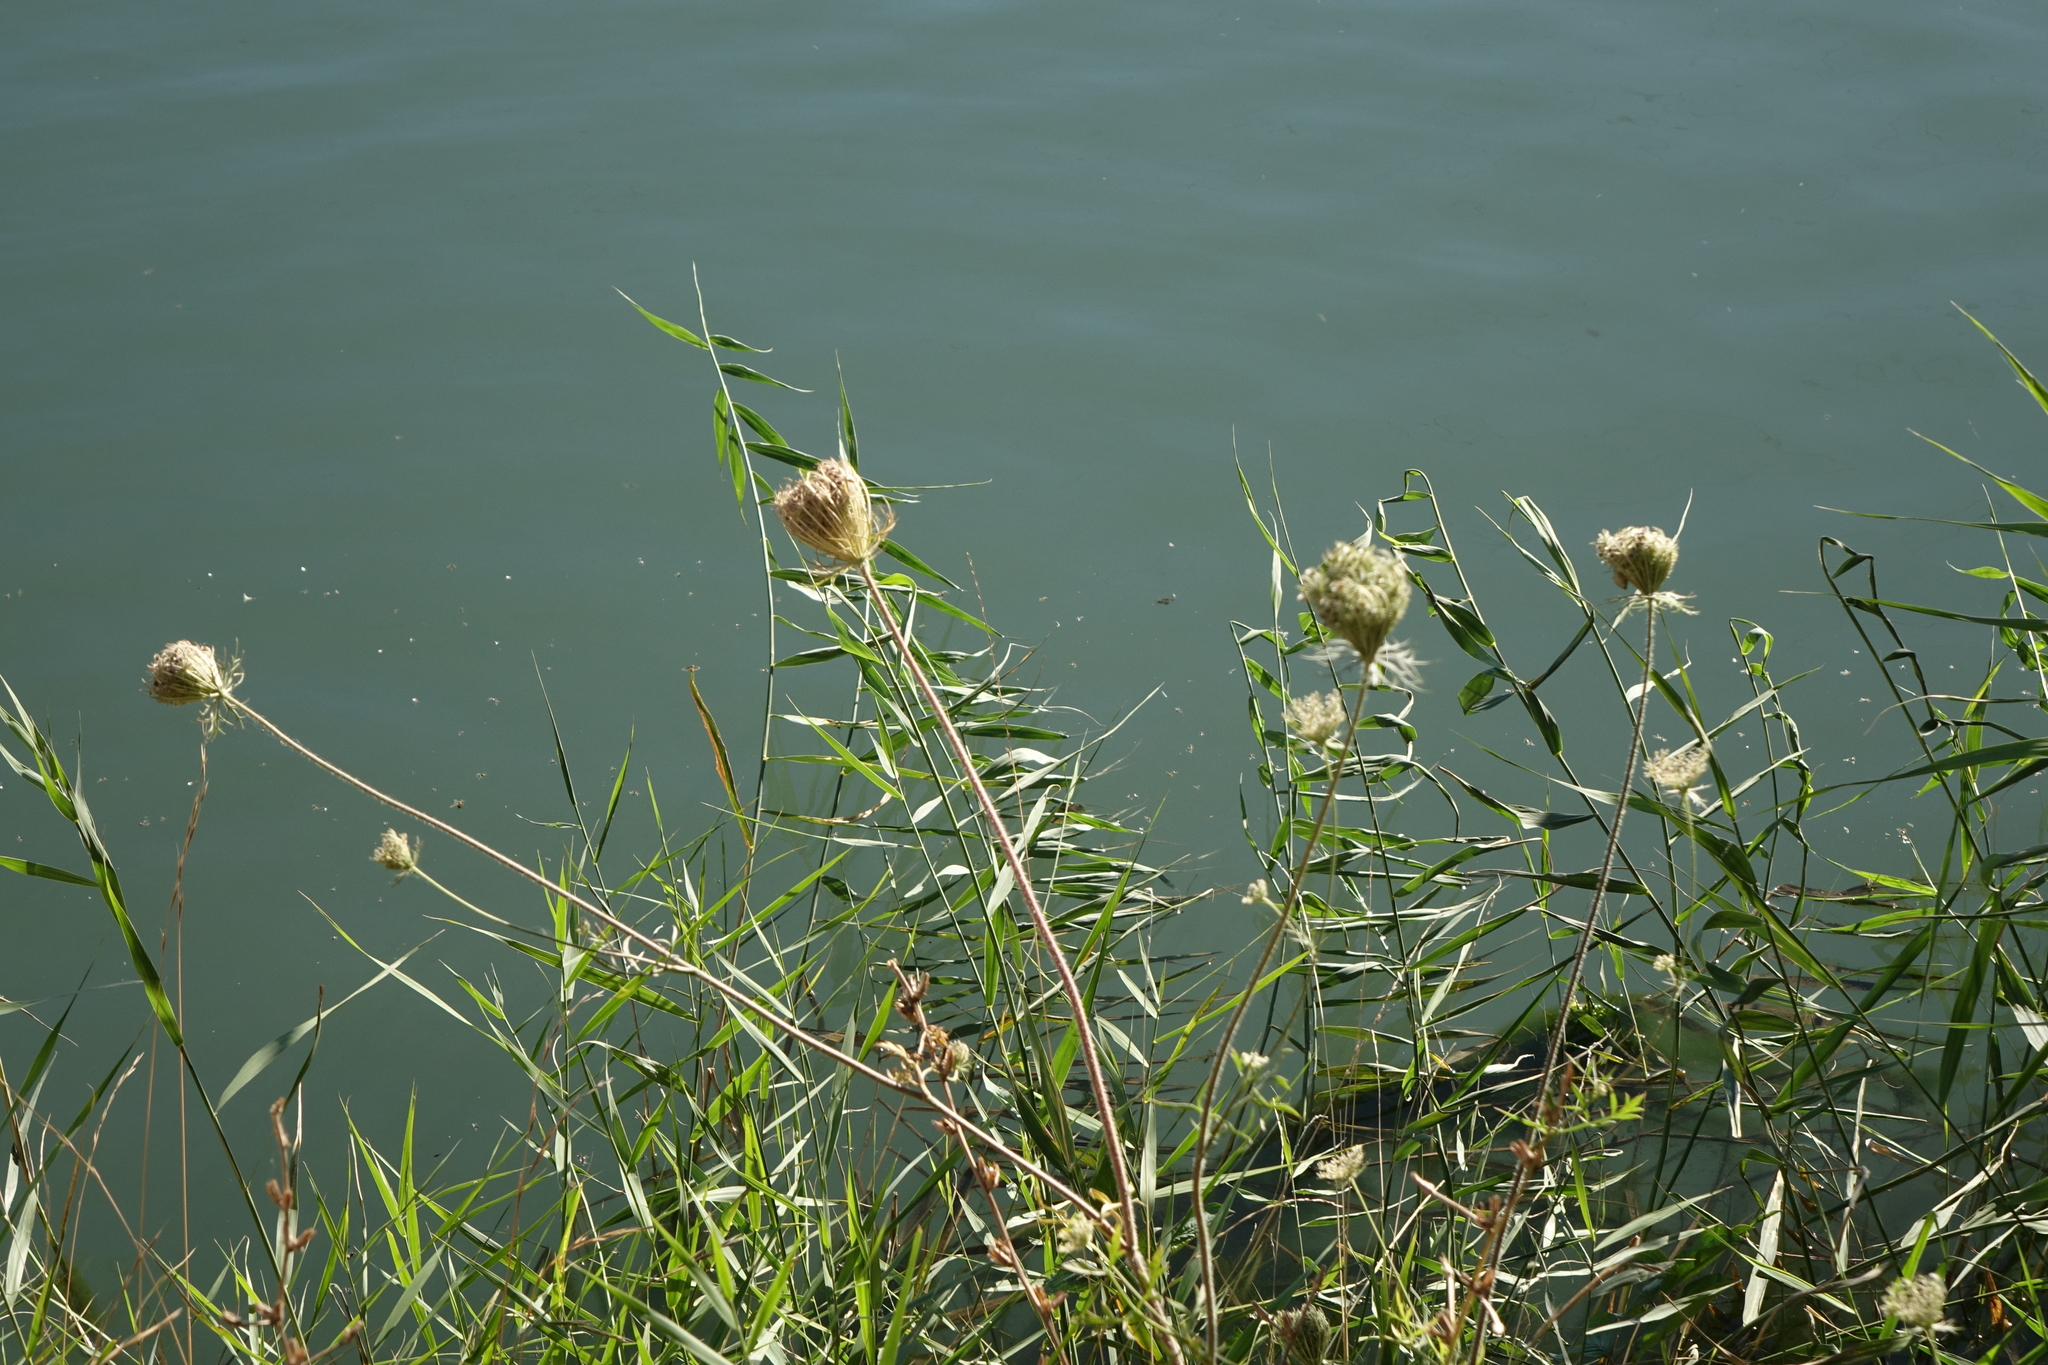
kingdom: Plantae
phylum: Tracheophyta
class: Magnoliopsida
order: Apiales
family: Apiaceae
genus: Daucus
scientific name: Daucus carota
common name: Wild carrot
